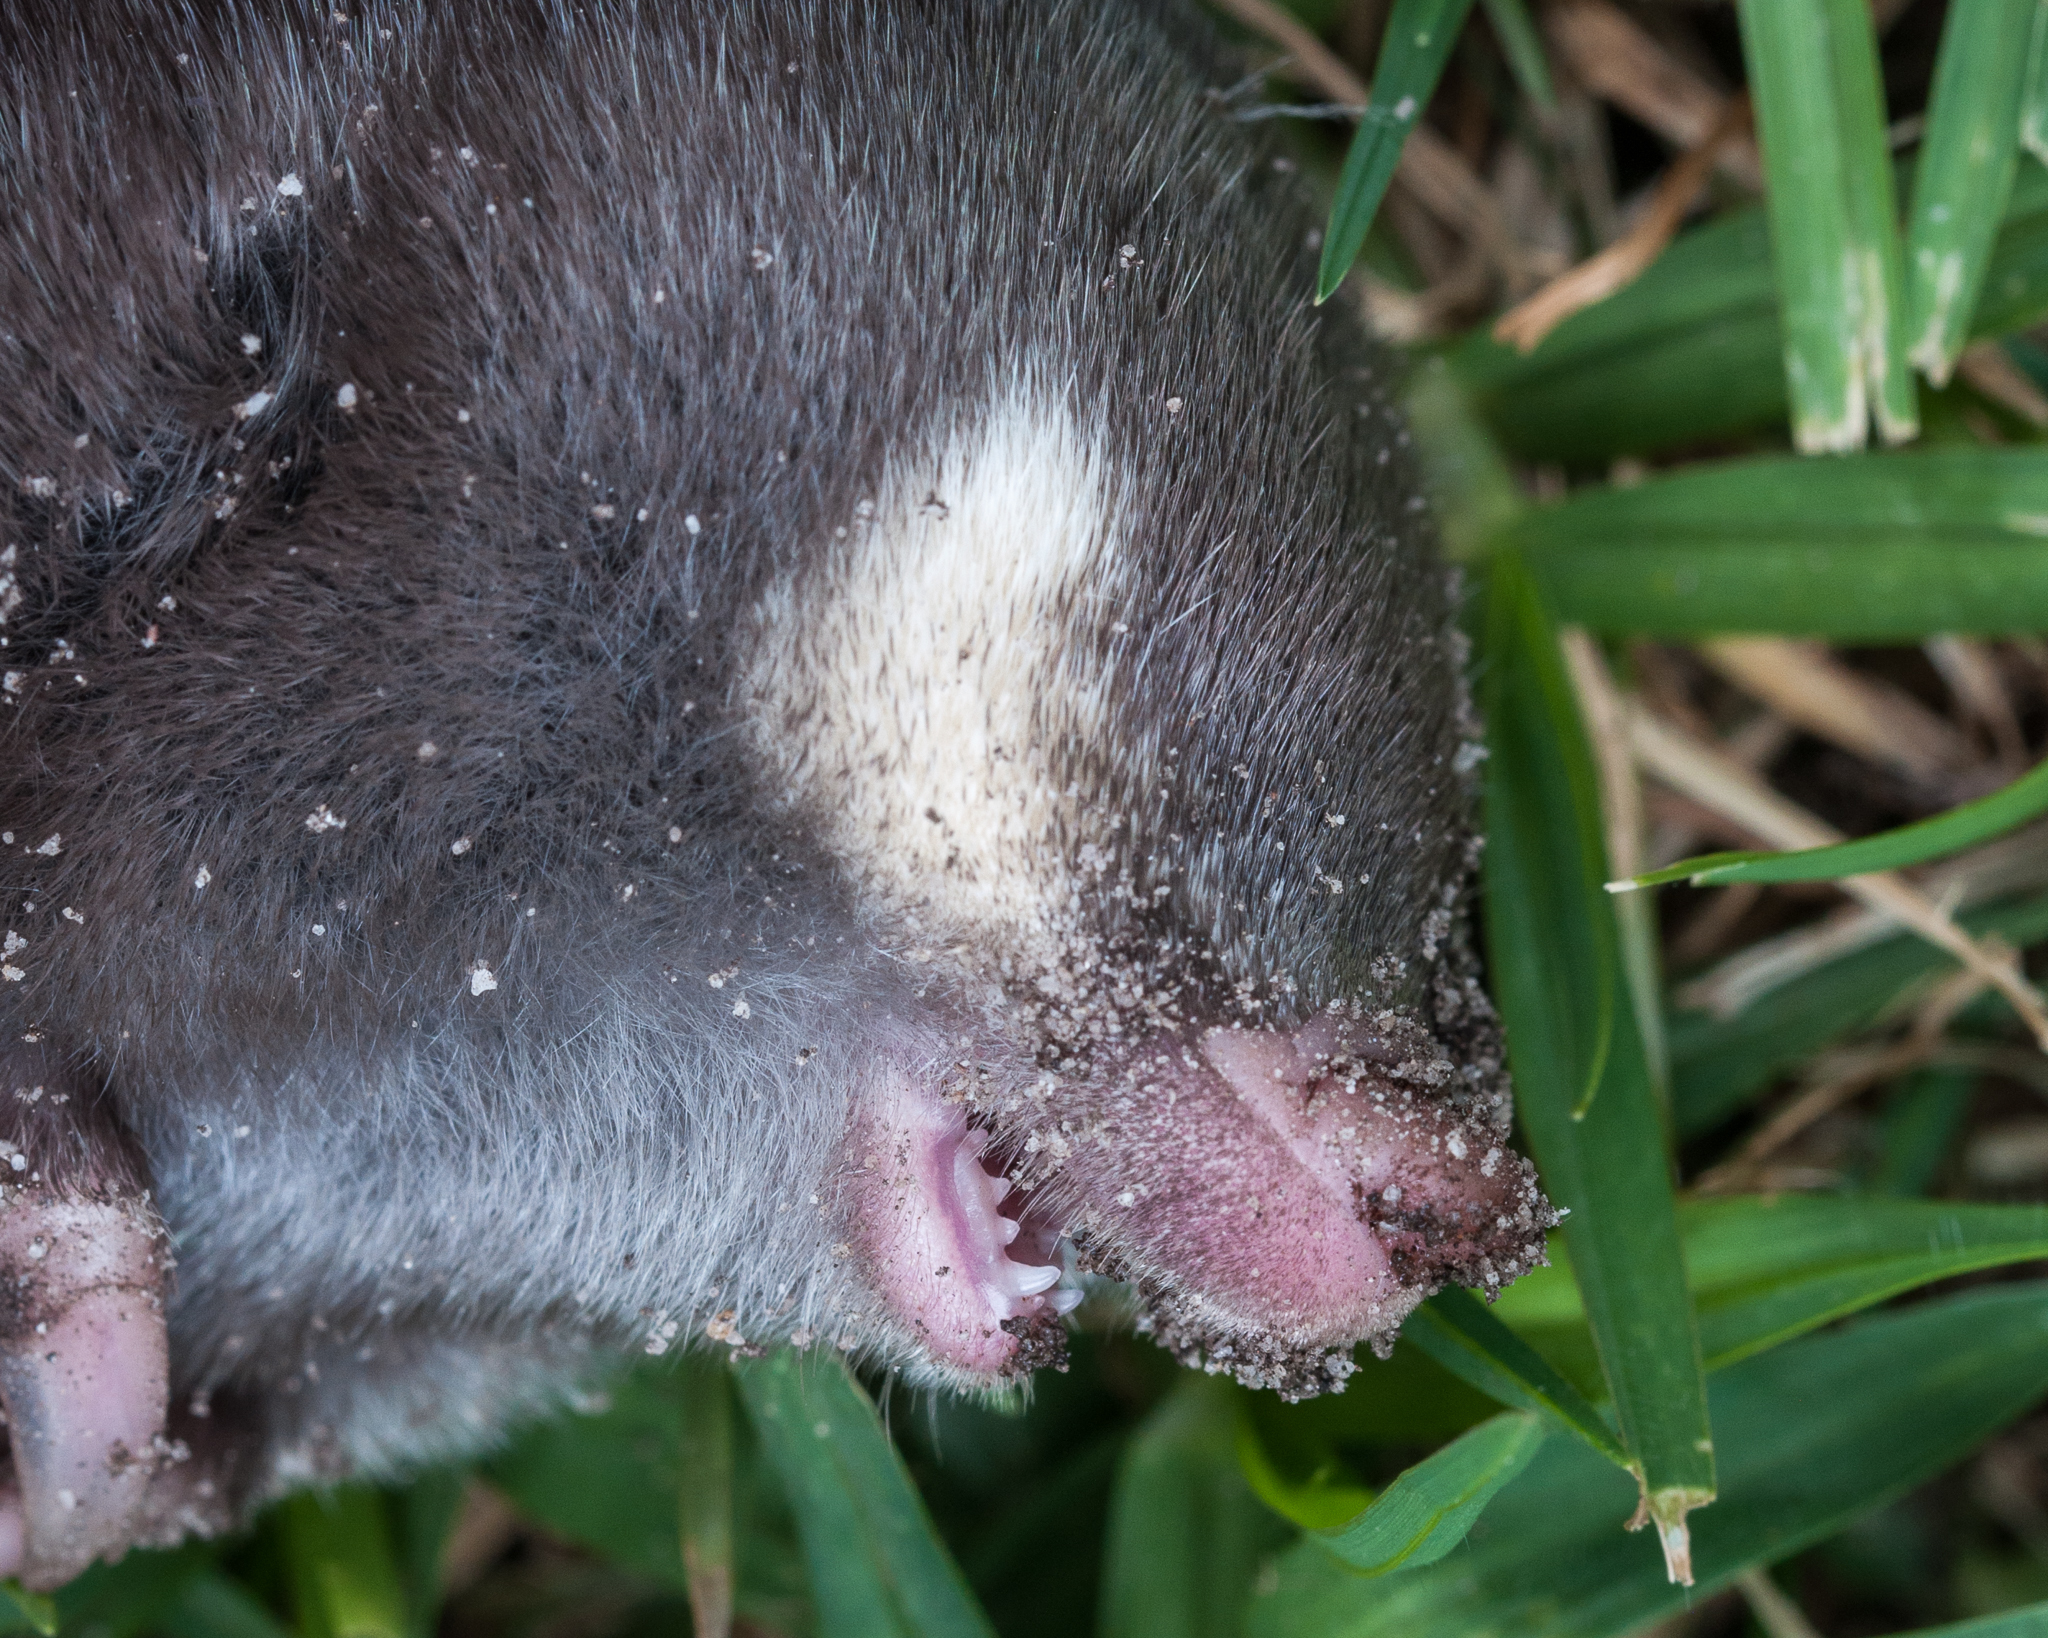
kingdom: Animalia
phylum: Chordata
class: Mammalia
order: Afrosoricida
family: Chrysochloridae
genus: Chrysochloris
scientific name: Chrysochloris asiatica
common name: Cape golden mole
